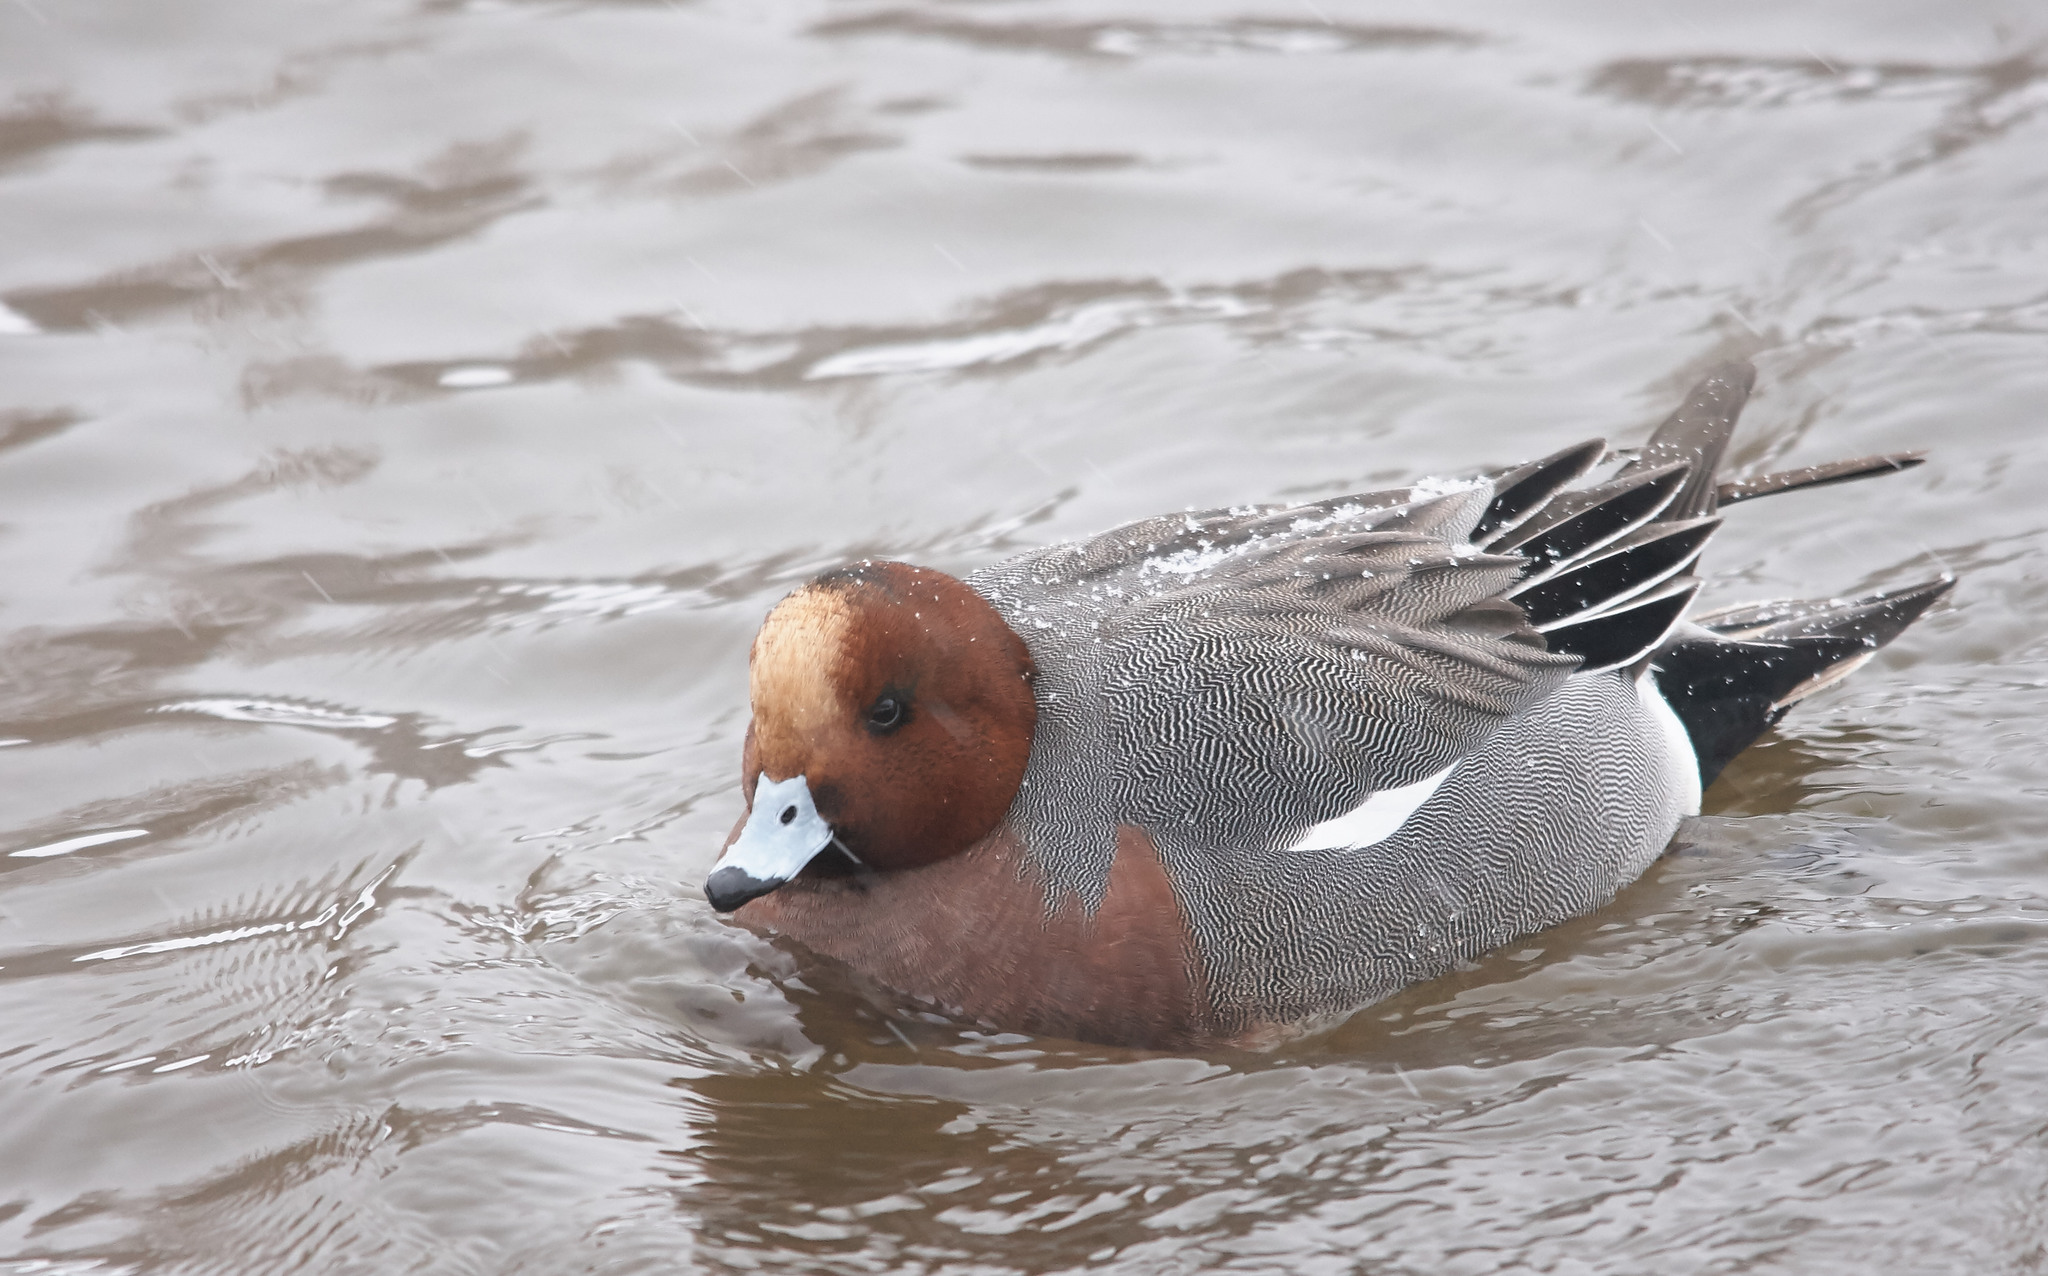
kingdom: Animalia
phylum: Chordata
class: Aves
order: Anseriformes
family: Anatidae
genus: Mareca
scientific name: Mareca penelope
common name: Eurasian wigeon
